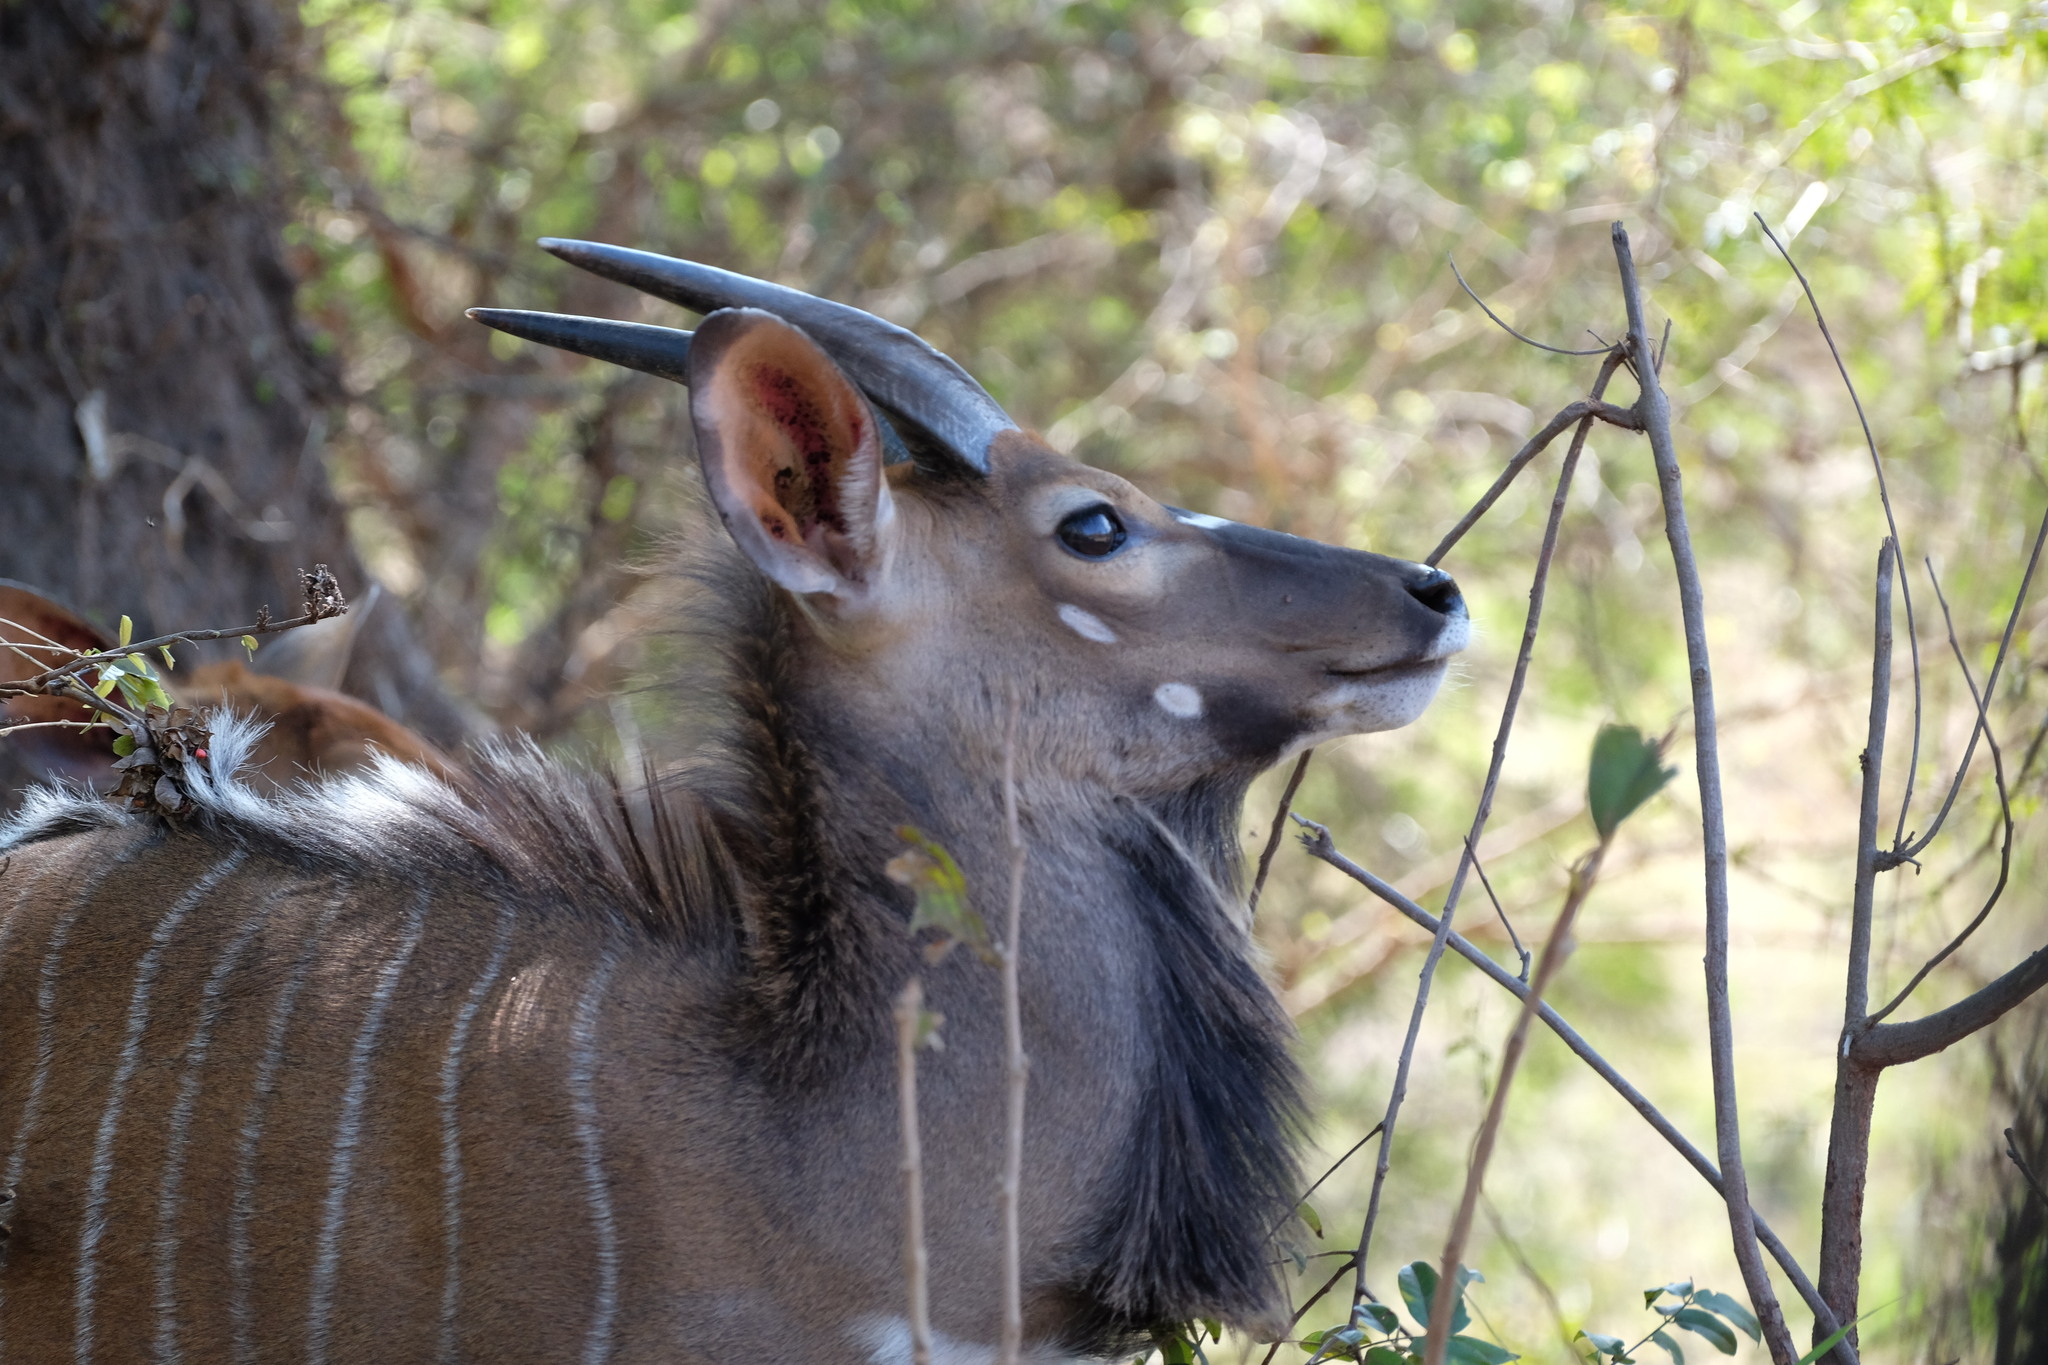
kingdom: Animalia
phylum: Chordata
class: Mammalia
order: Artiodactyla
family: Bovidae
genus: Tragelaphus
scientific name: Tragelaphus angasii
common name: Nyala
